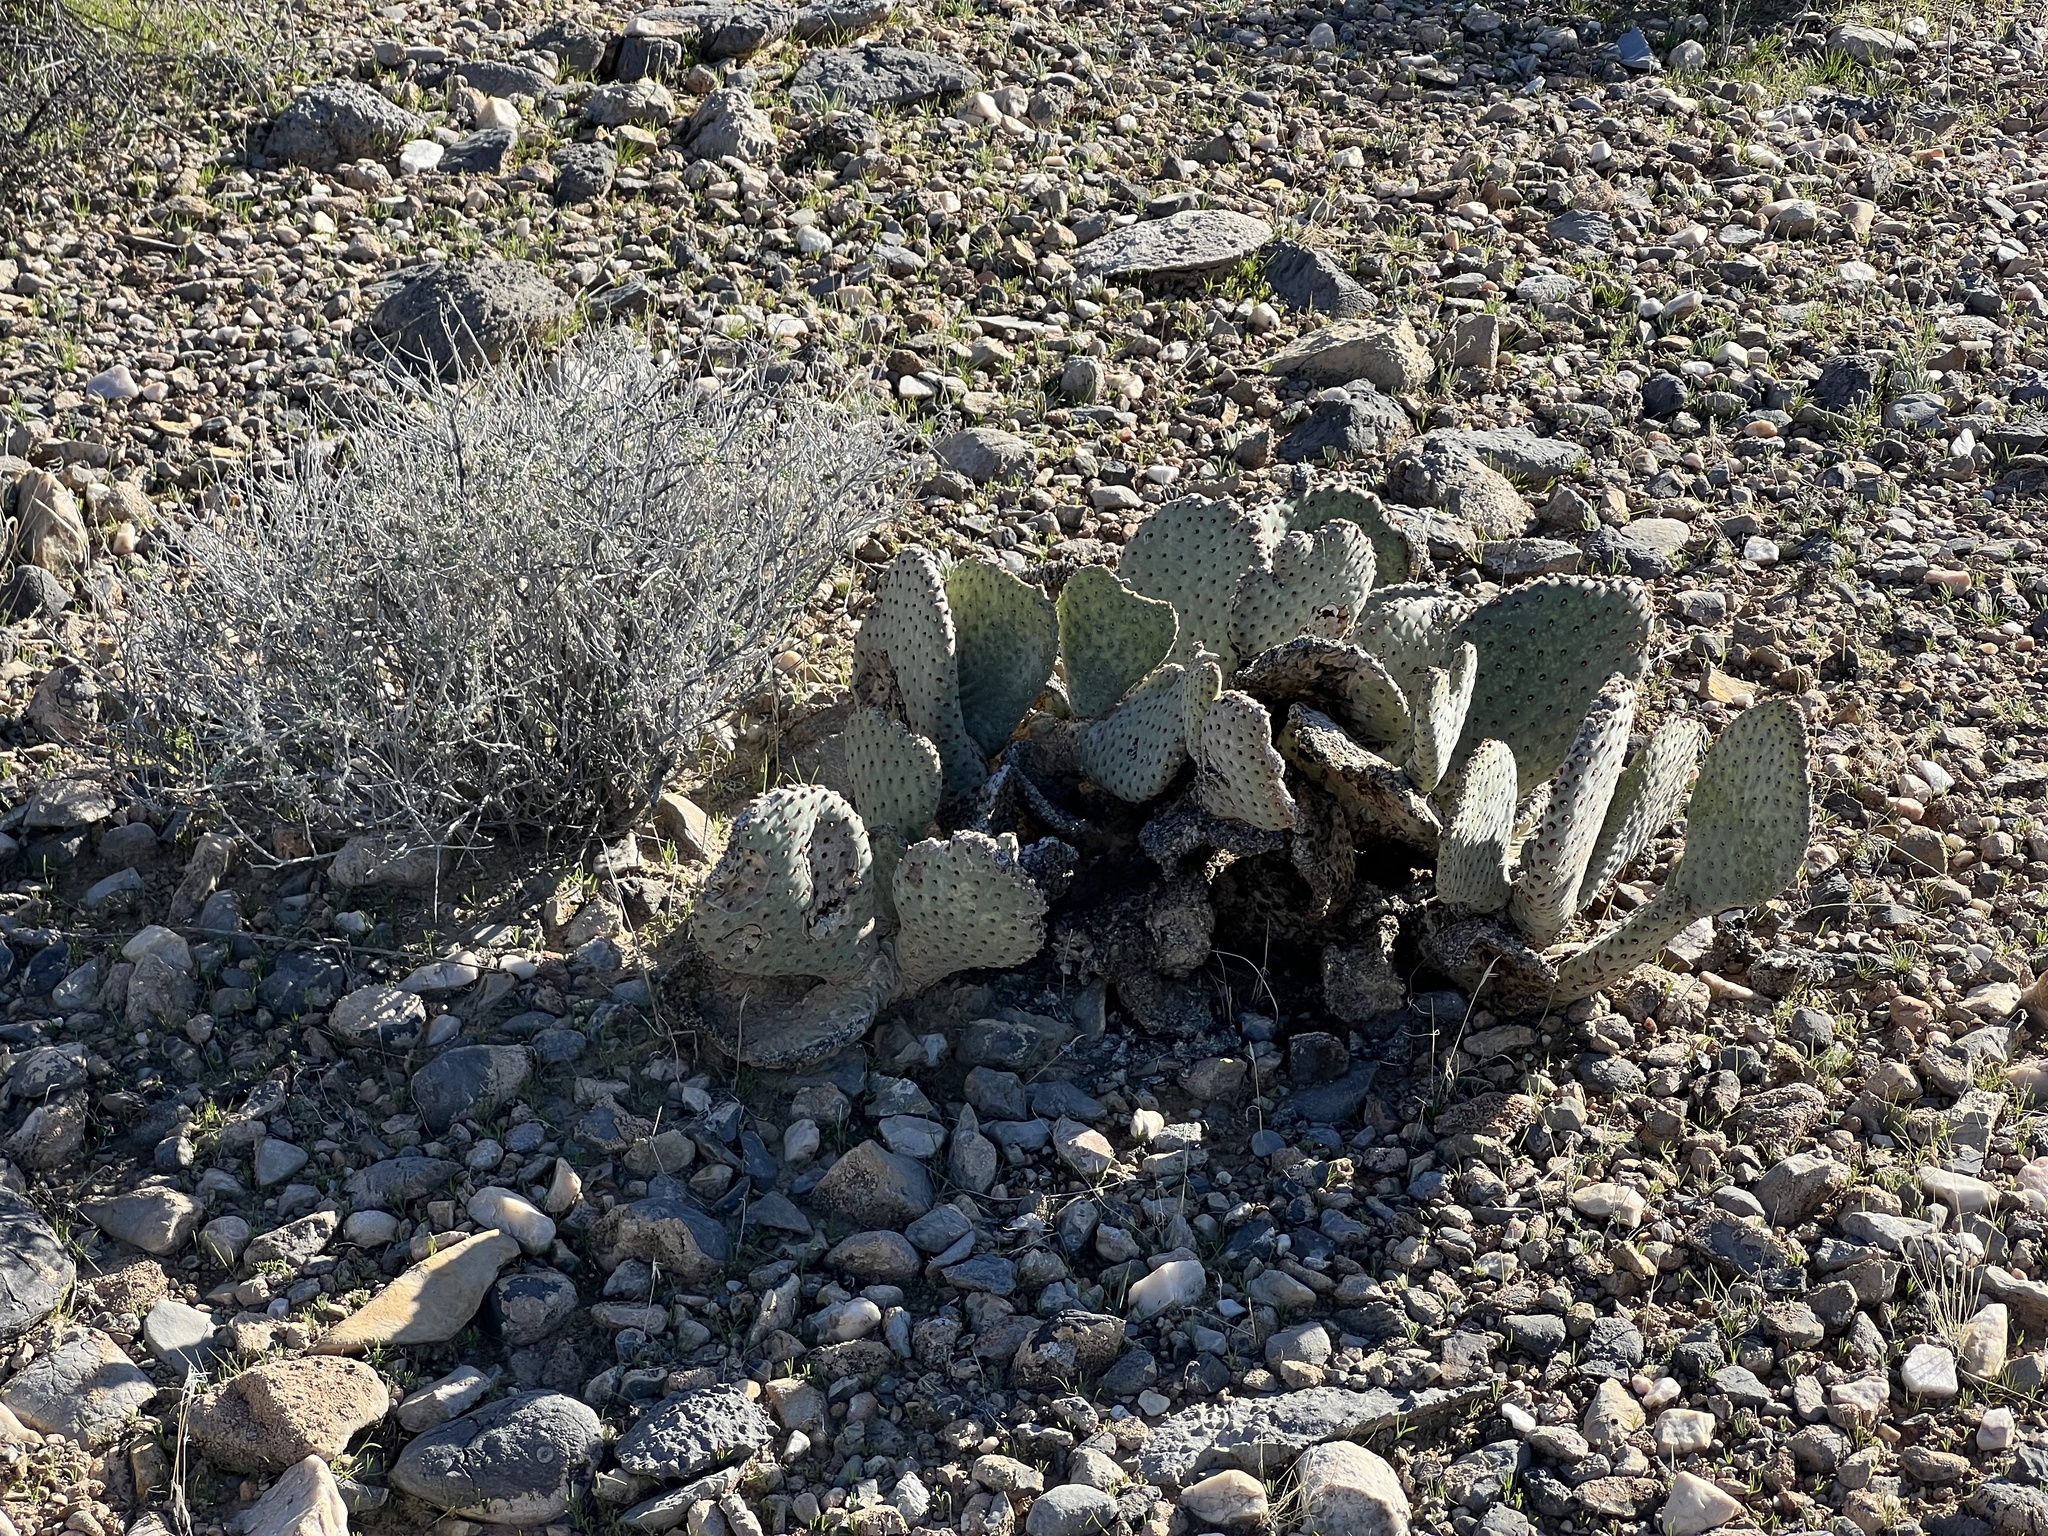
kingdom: Plantae
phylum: Tracheophyta
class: Magnoliopsida
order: Caryophyllales
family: Cactaceae
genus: Opuntia
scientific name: Opuntia basilaris
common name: Beavertail prickly-pear
